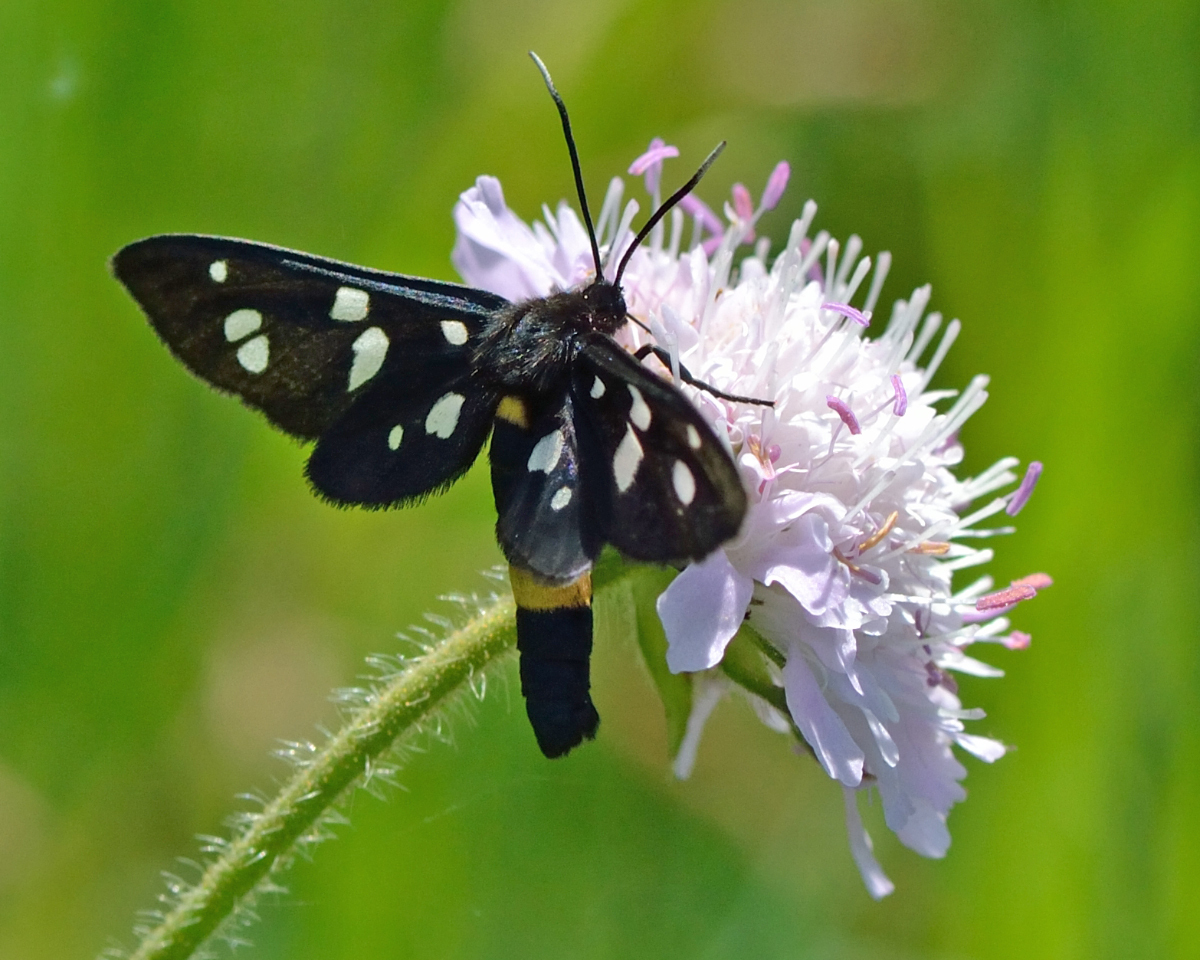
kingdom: Animalia
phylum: Arthropoda
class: Insecta
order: Lepidoptera
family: Erebidae
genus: Amata
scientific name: Amata nigricornis
